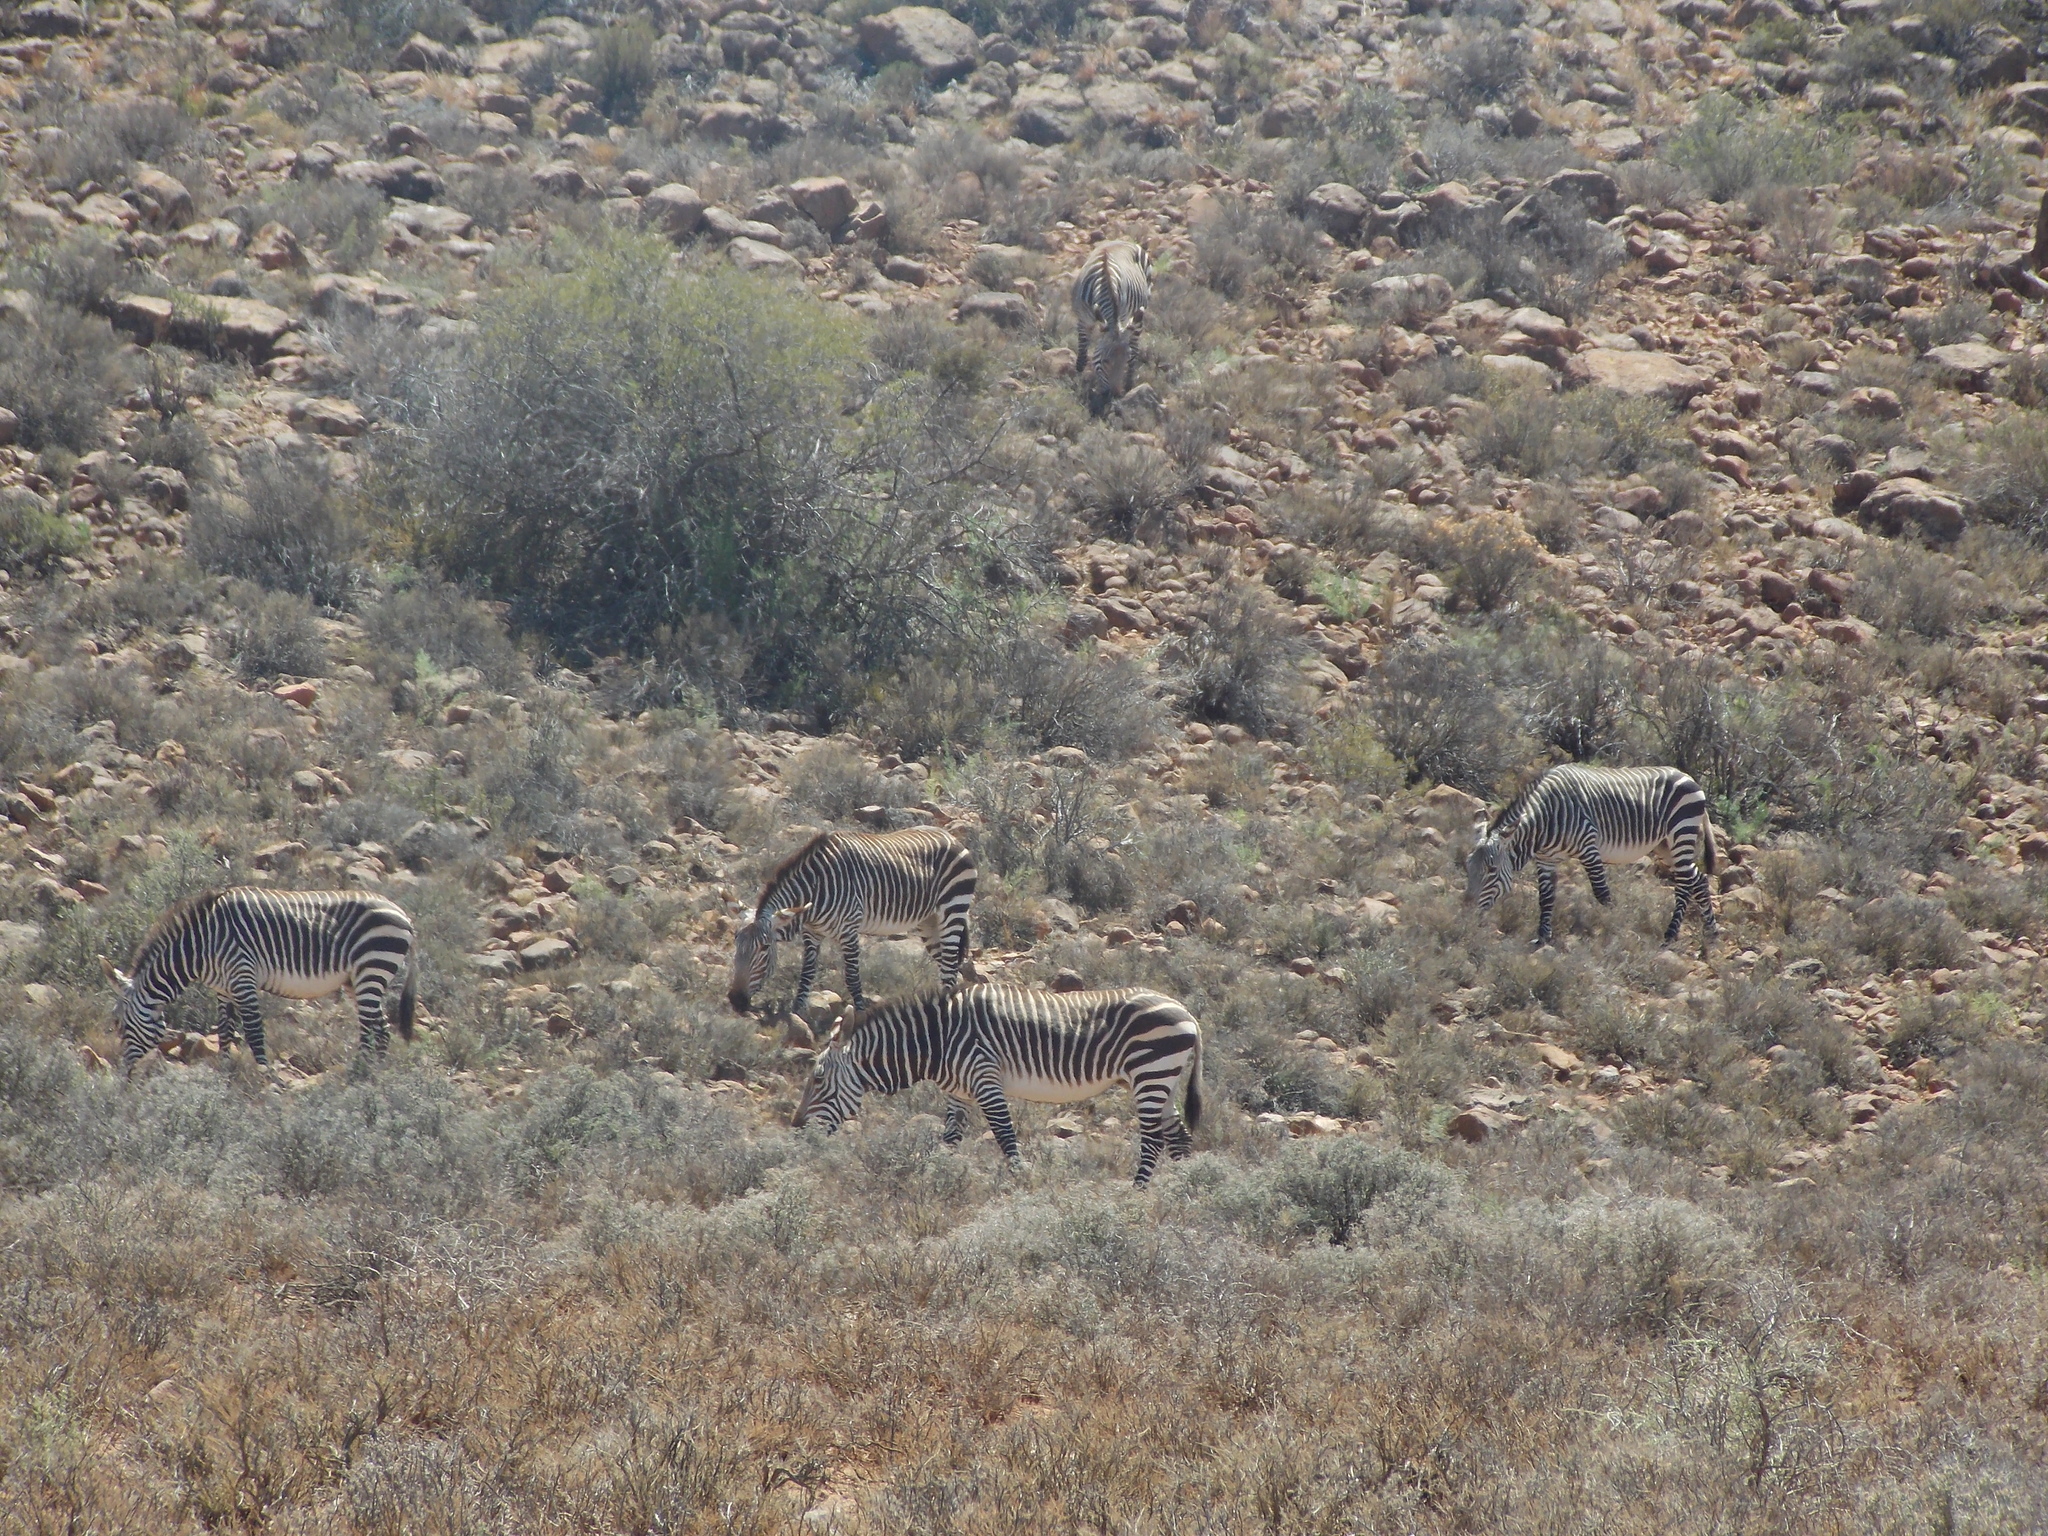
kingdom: Animalia
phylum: Chordata
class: Mammalia
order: Perissodactyla
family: Equidae
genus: Equus
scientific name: Equus zebra
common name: Mountain zebra
